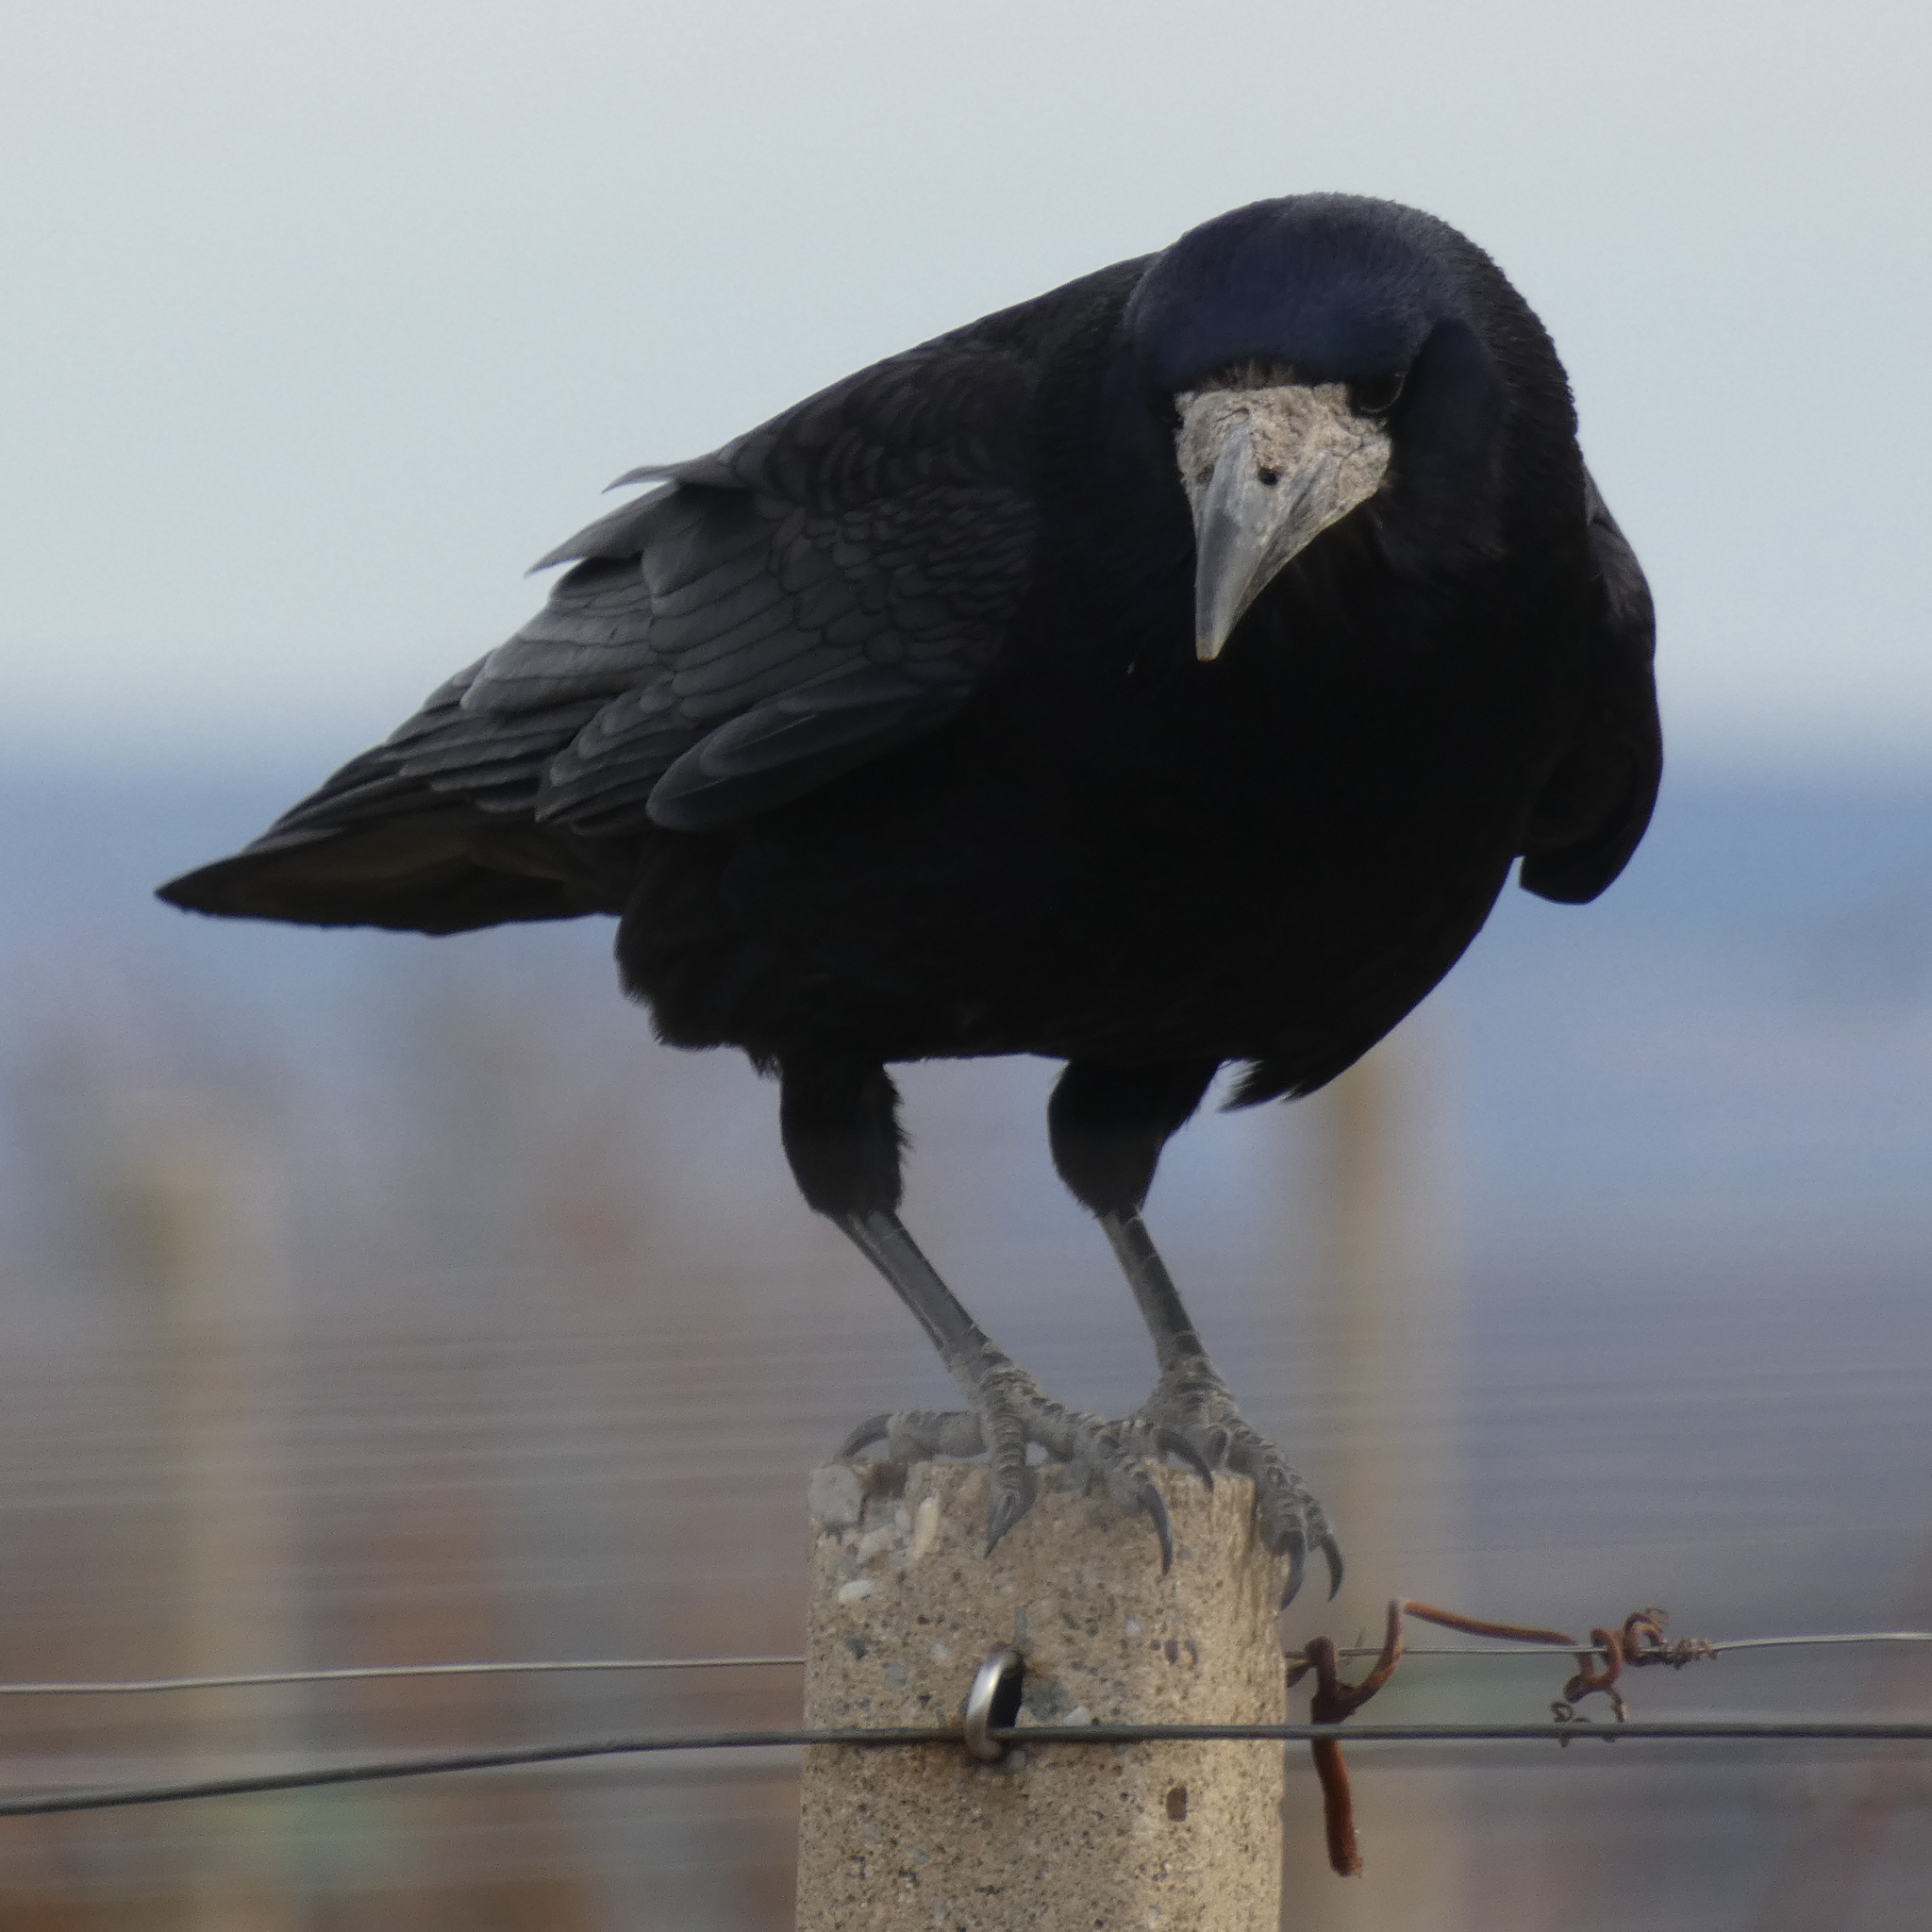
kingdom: Animalia
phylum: Chordata
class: Aves
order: Passeriformes
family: Corvidae
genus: Corvus
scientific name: Corvus frugilegus
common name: Rook
